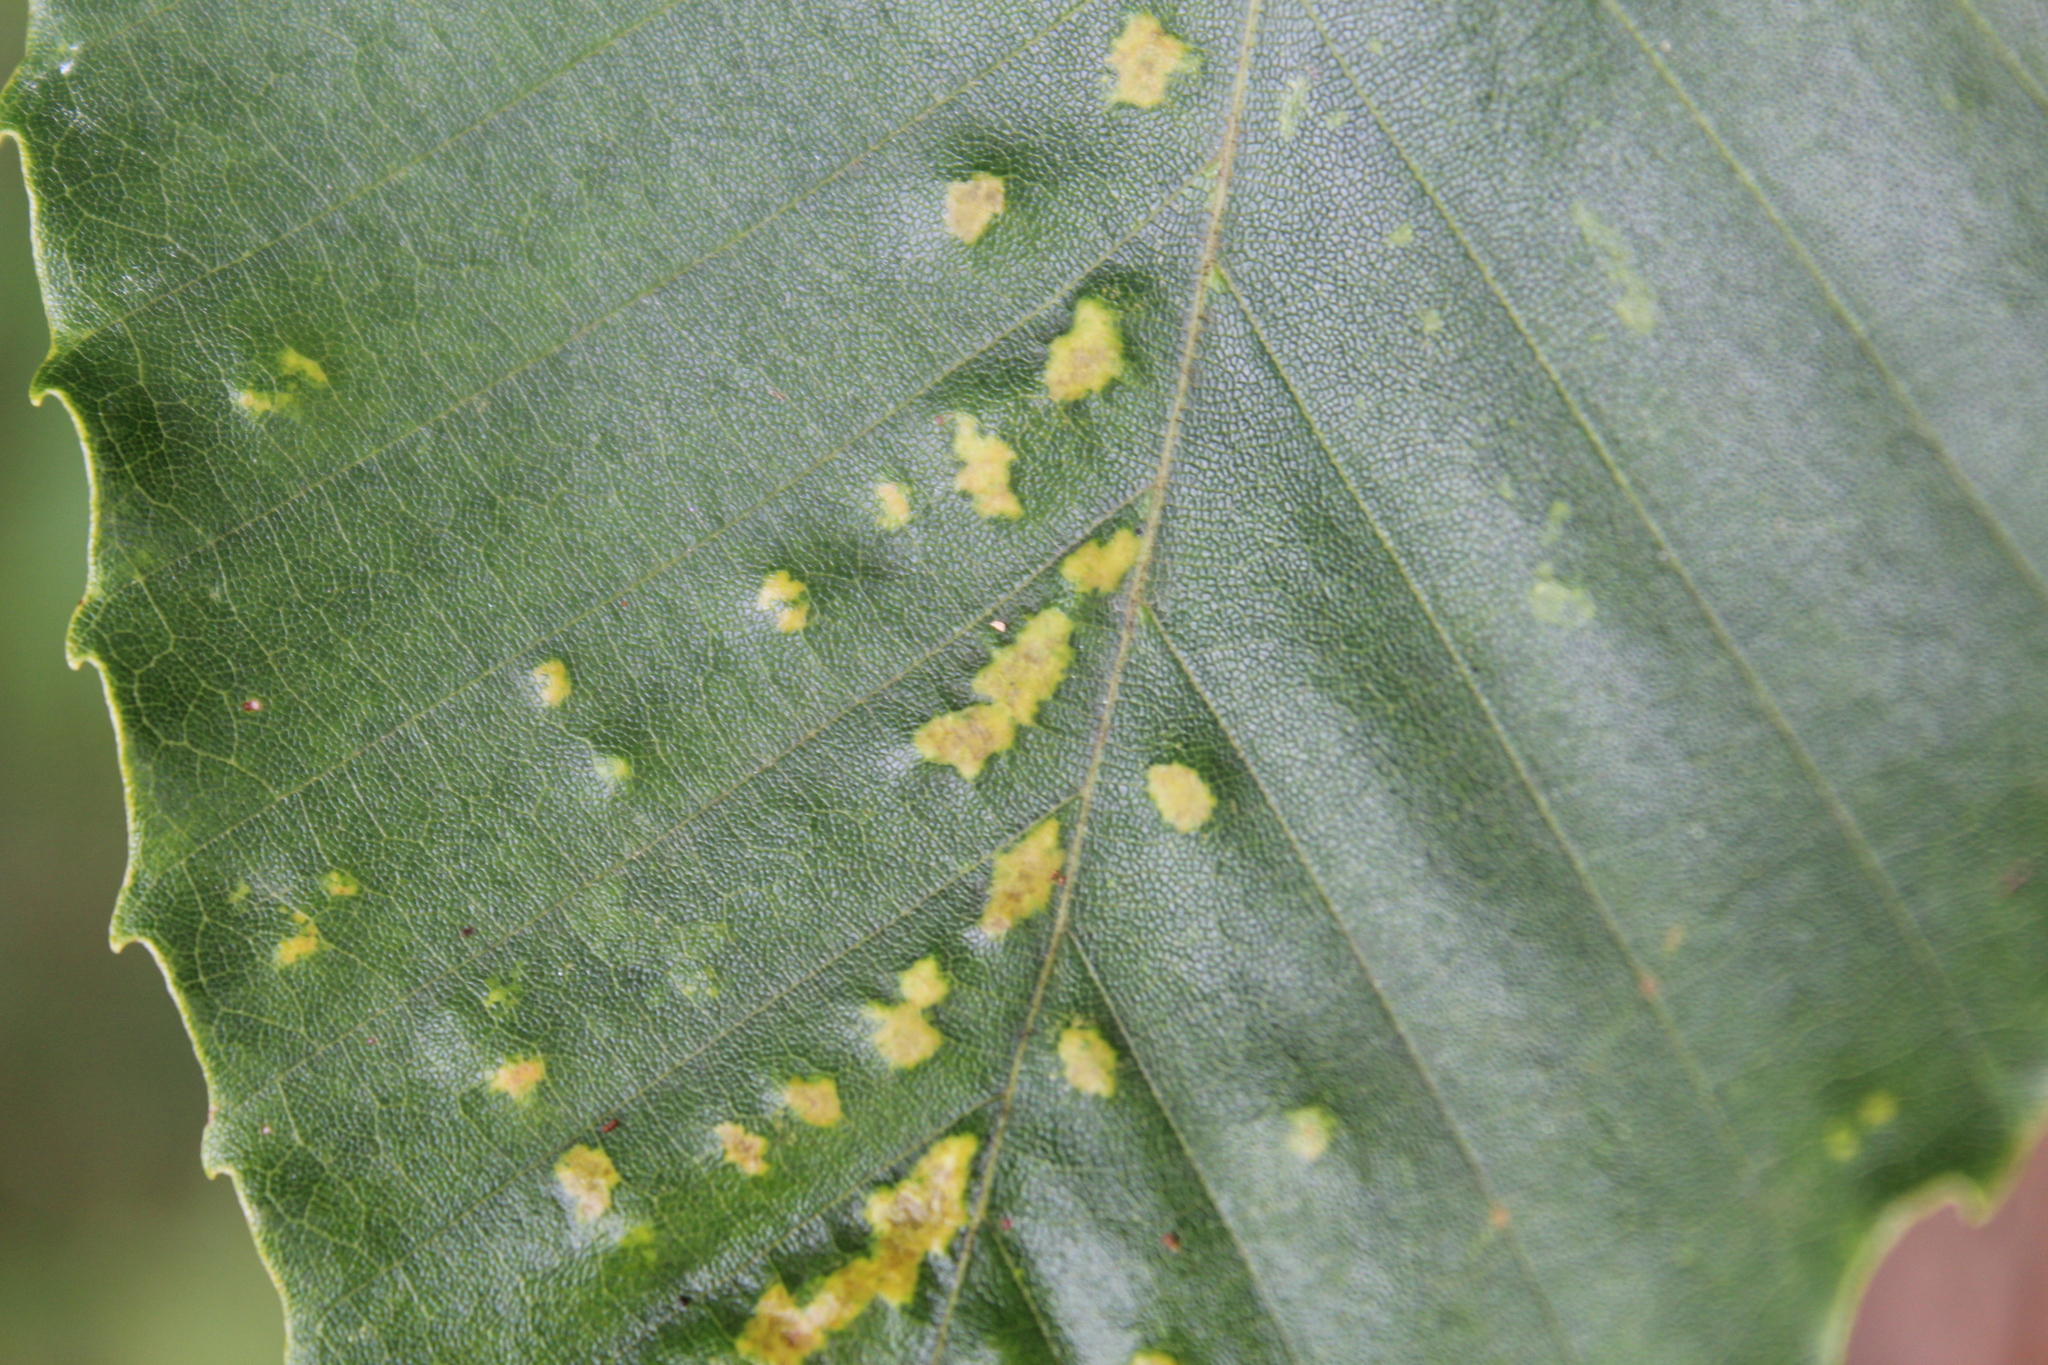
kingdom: Animalia
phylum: Arthropoda
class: Arachnida
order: Trombidiformes
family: Eriophyidae
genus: Acalitus
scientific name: Acalitus
